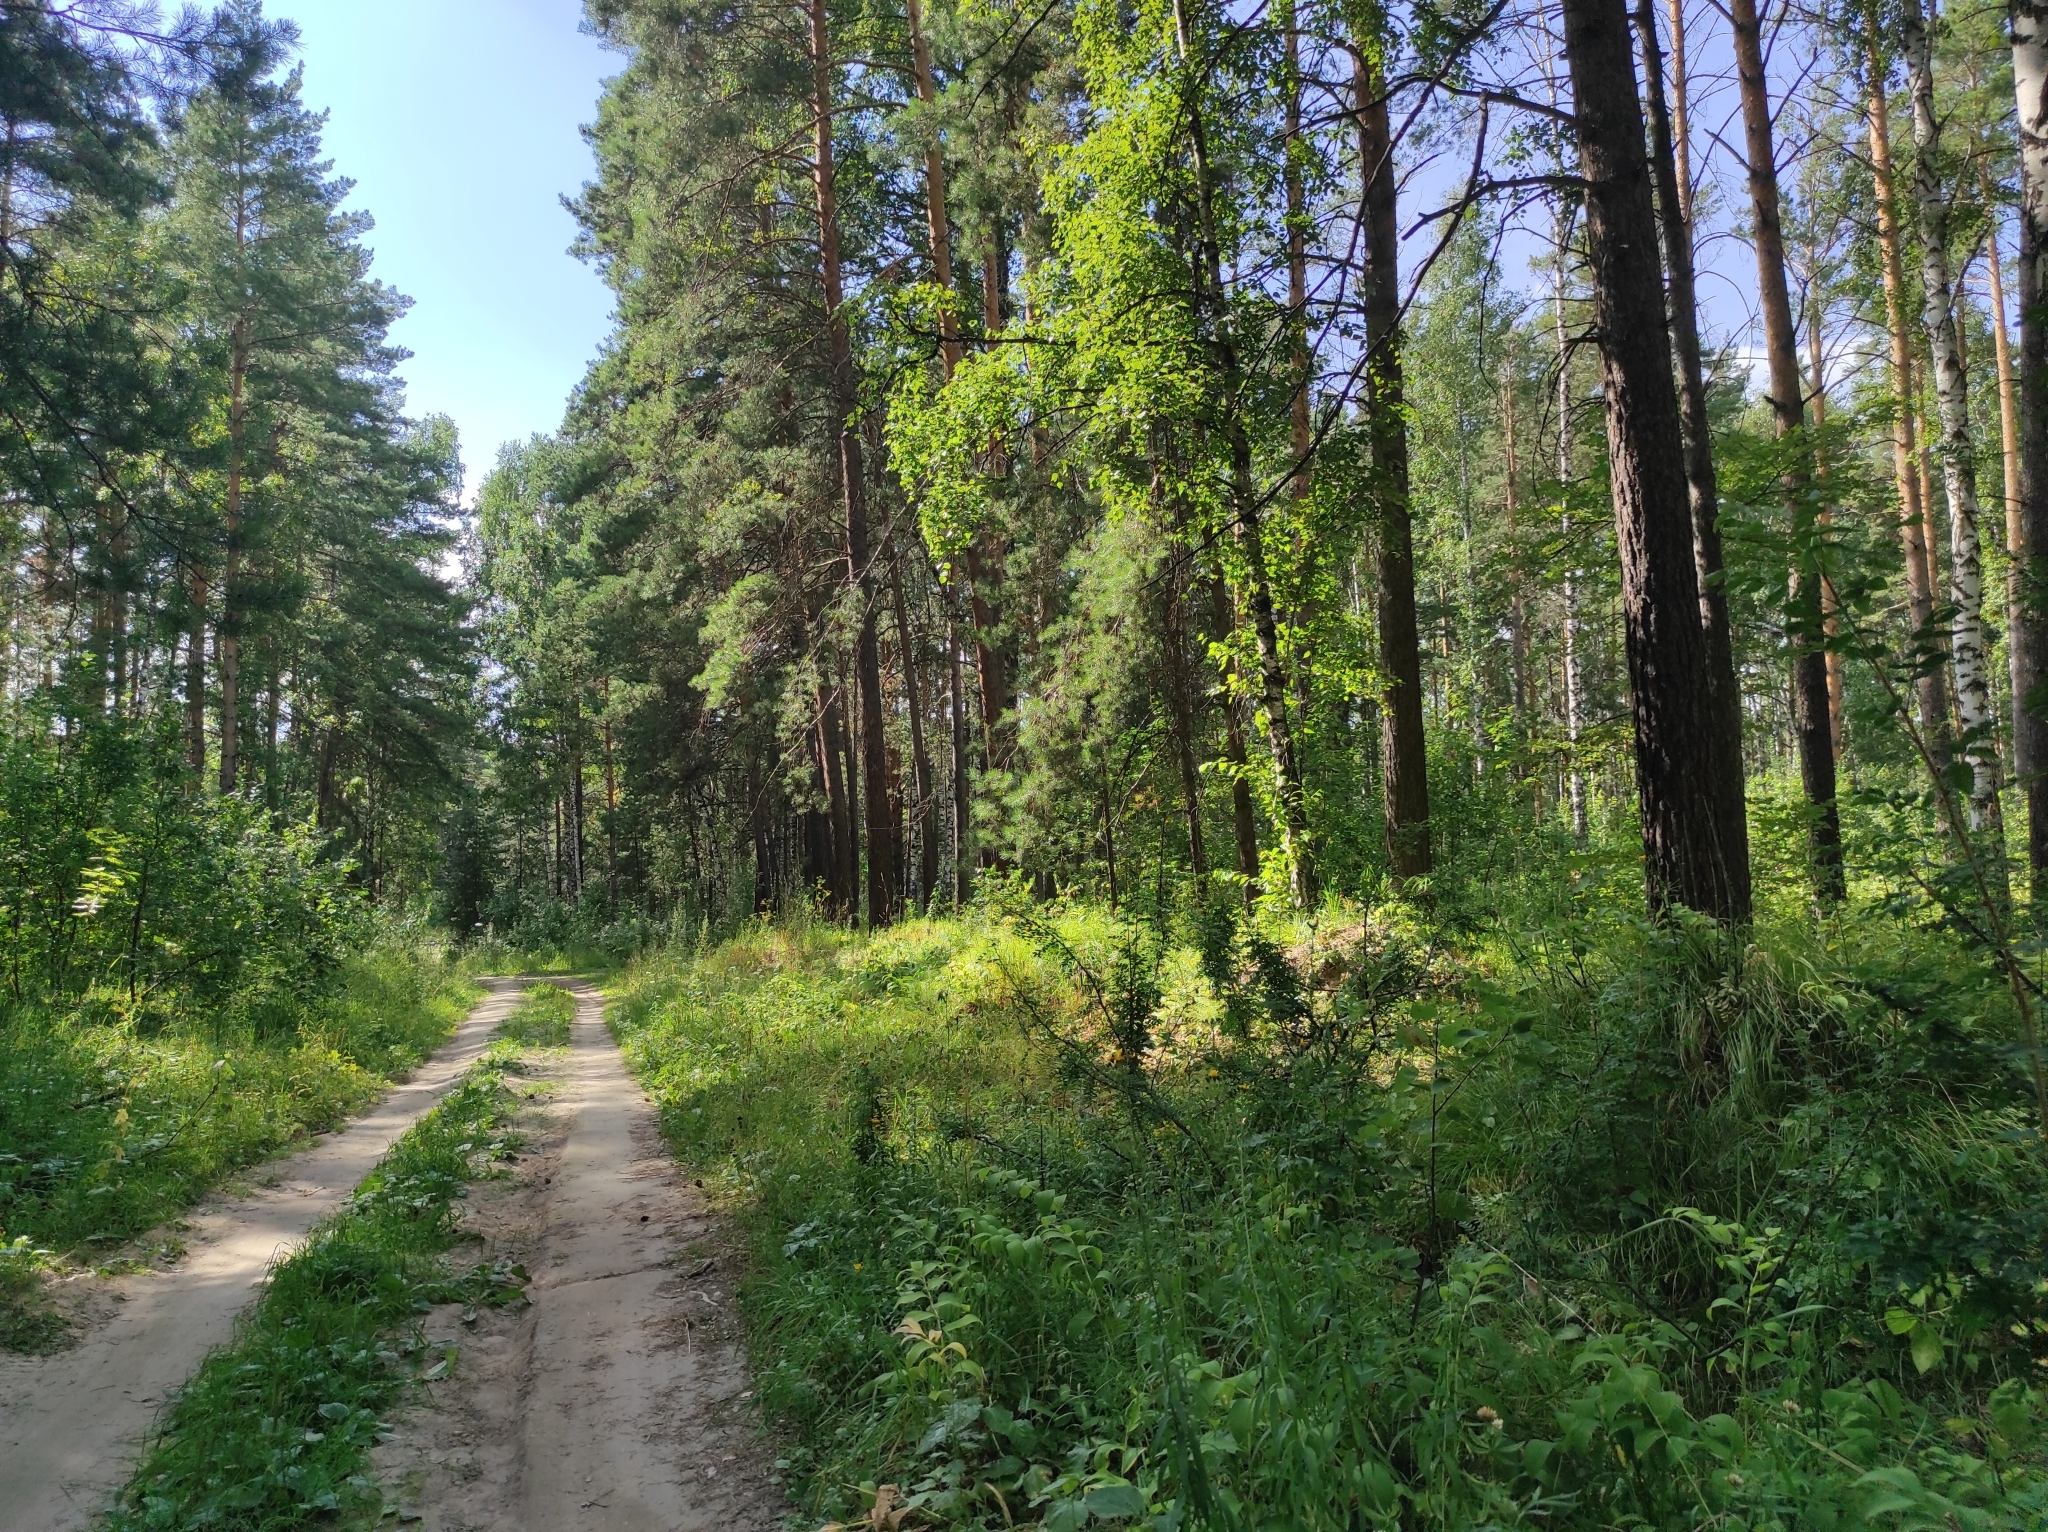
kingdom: Plantae
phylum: Tracheophyta
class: Pinopsida
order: Pinales
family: Pinaceae
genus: Pinus
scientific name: Pinus sylvestris
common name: Scots pine
